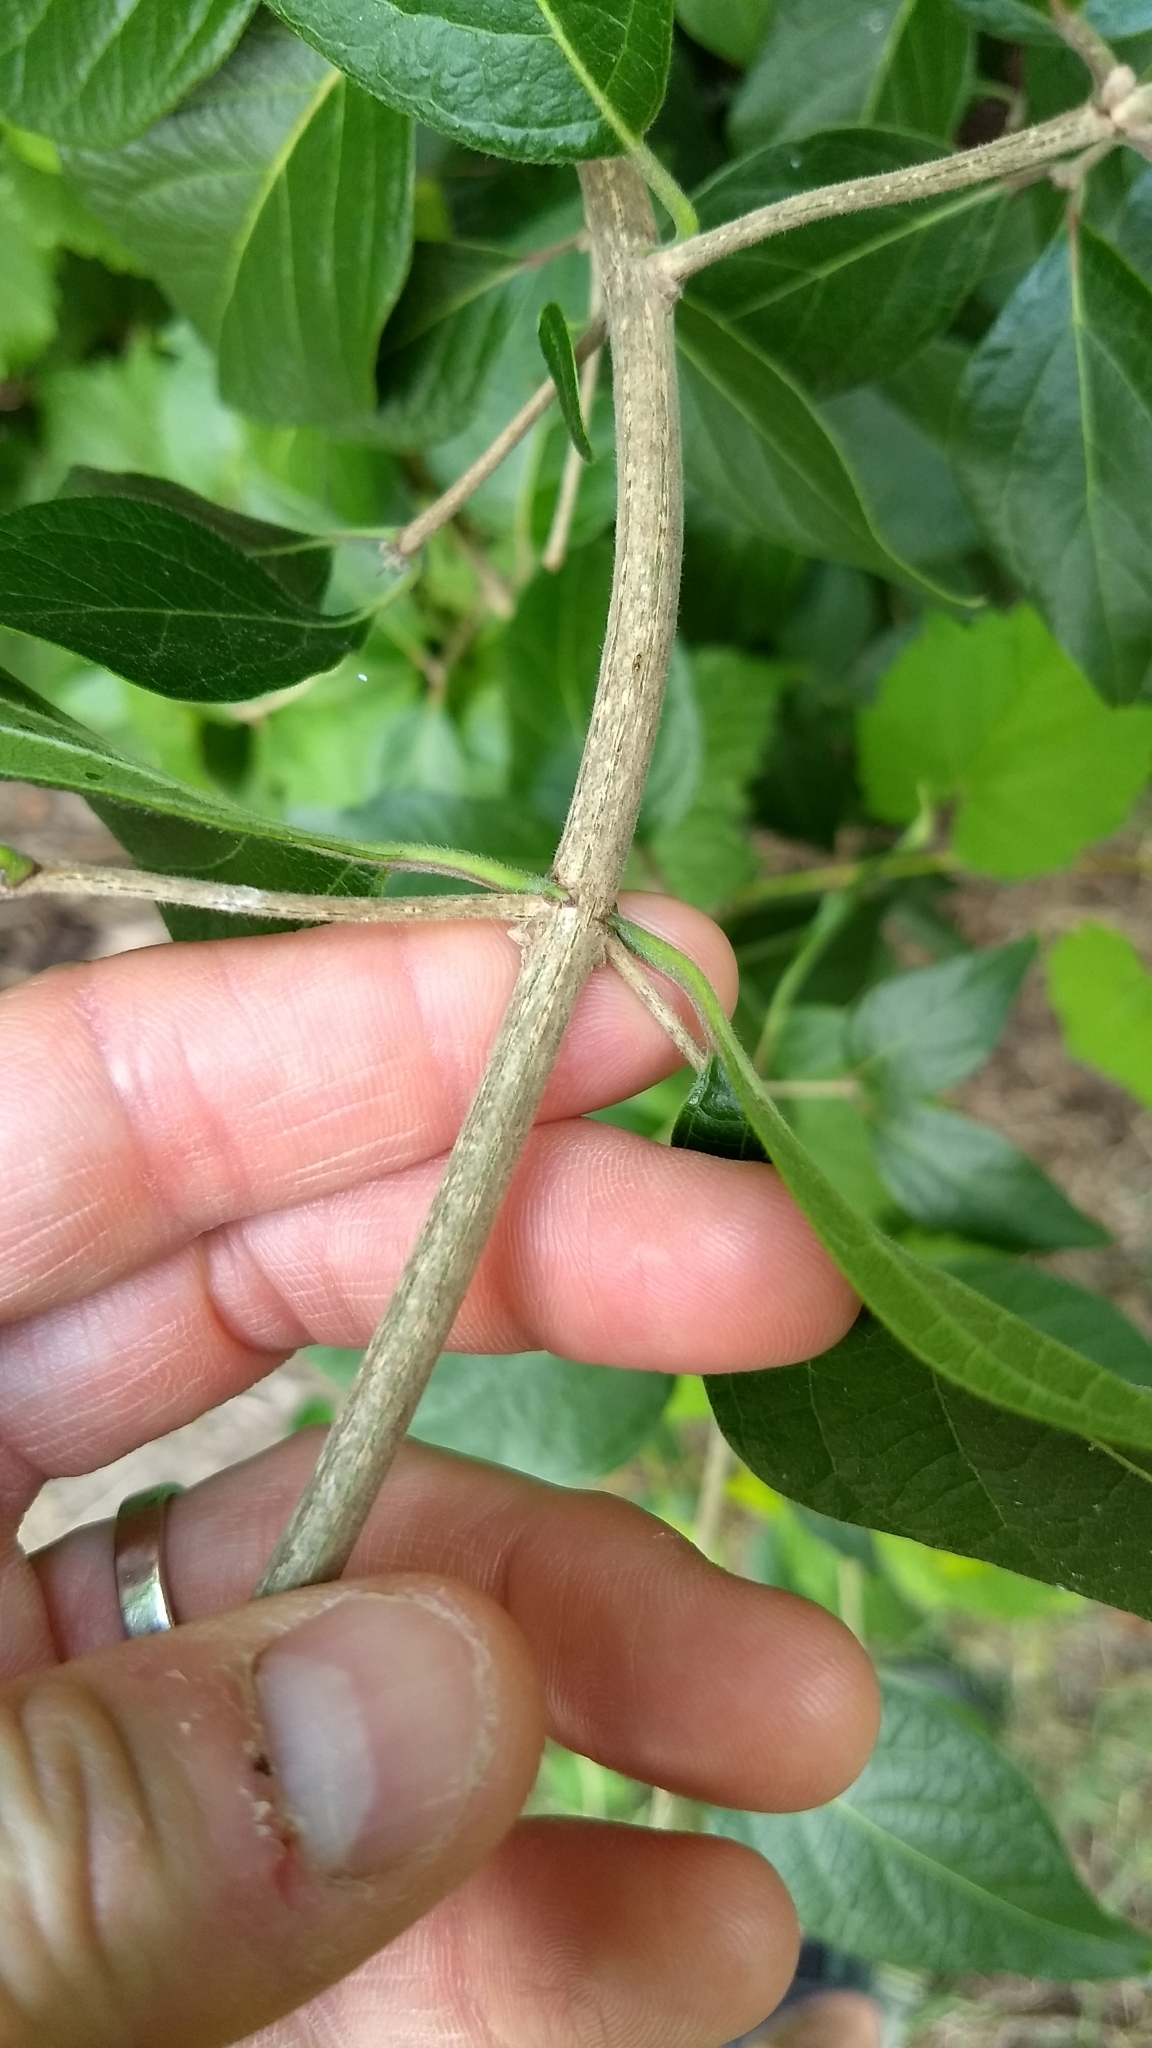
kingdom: Plantae
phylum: Tracheophyta
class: Magnoliopsida
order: Dipsacales
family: Caprifoliaceae
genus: Lonicera
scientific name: Lonicera maackii
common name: Amur honeysuckle
